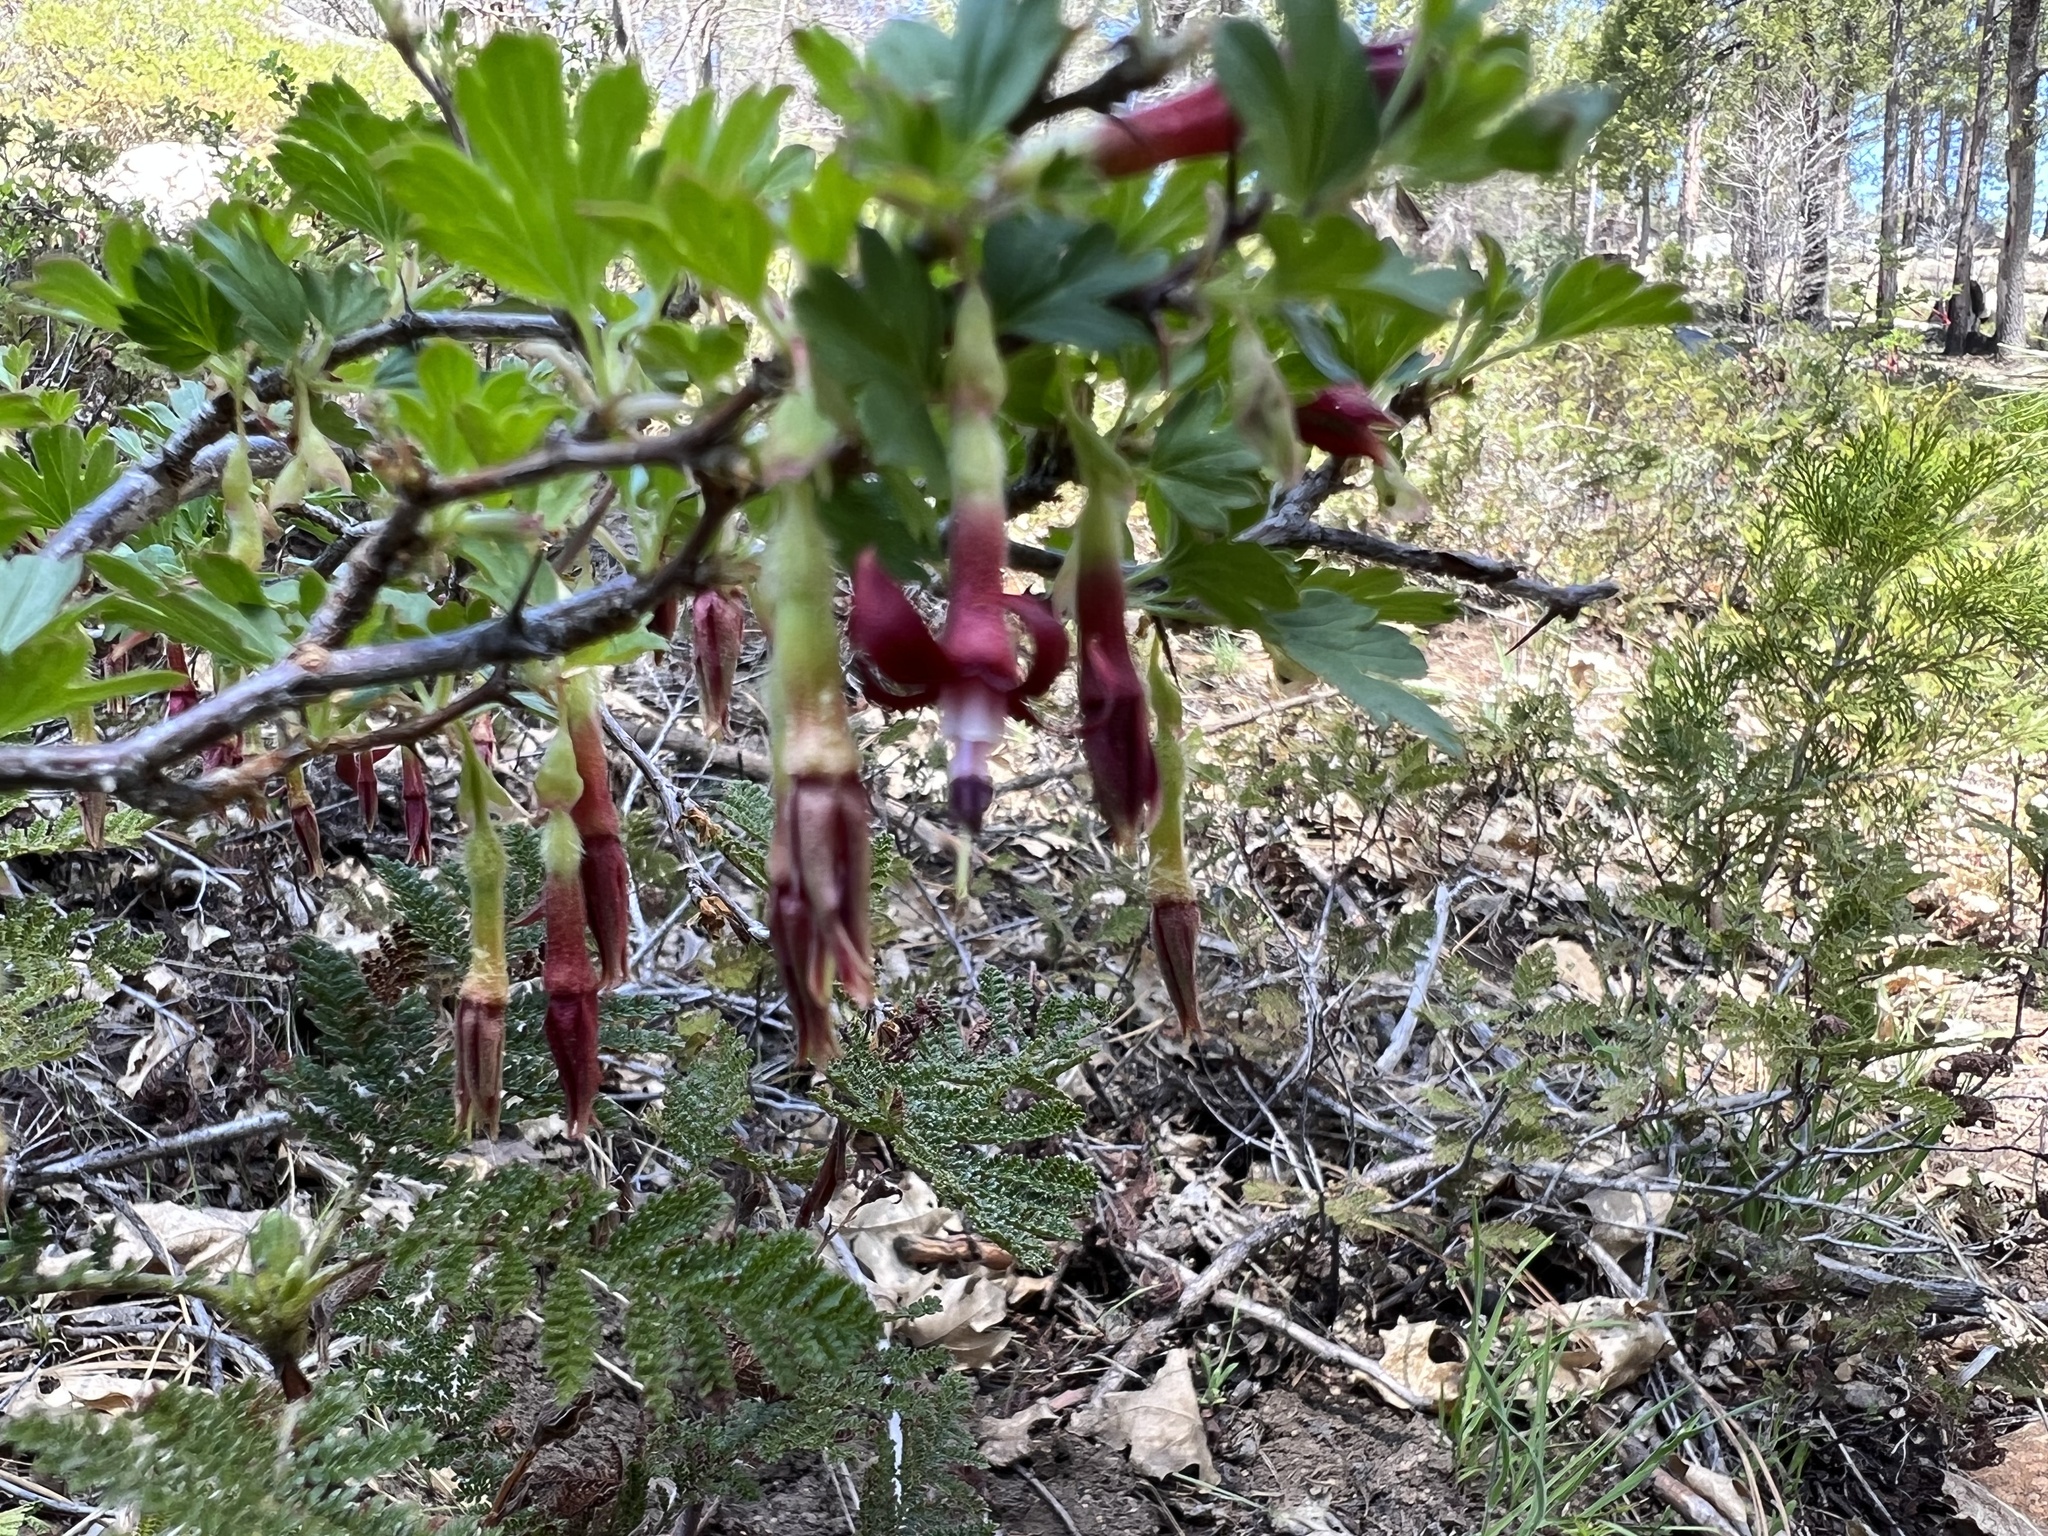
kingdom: Plantae
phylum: Tracheophyta
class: Magnoliopsida
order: Saxifragales
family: Grossulariaceae
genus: Ribes
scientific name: Ribes roezlii
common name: Sierra gooseberry
